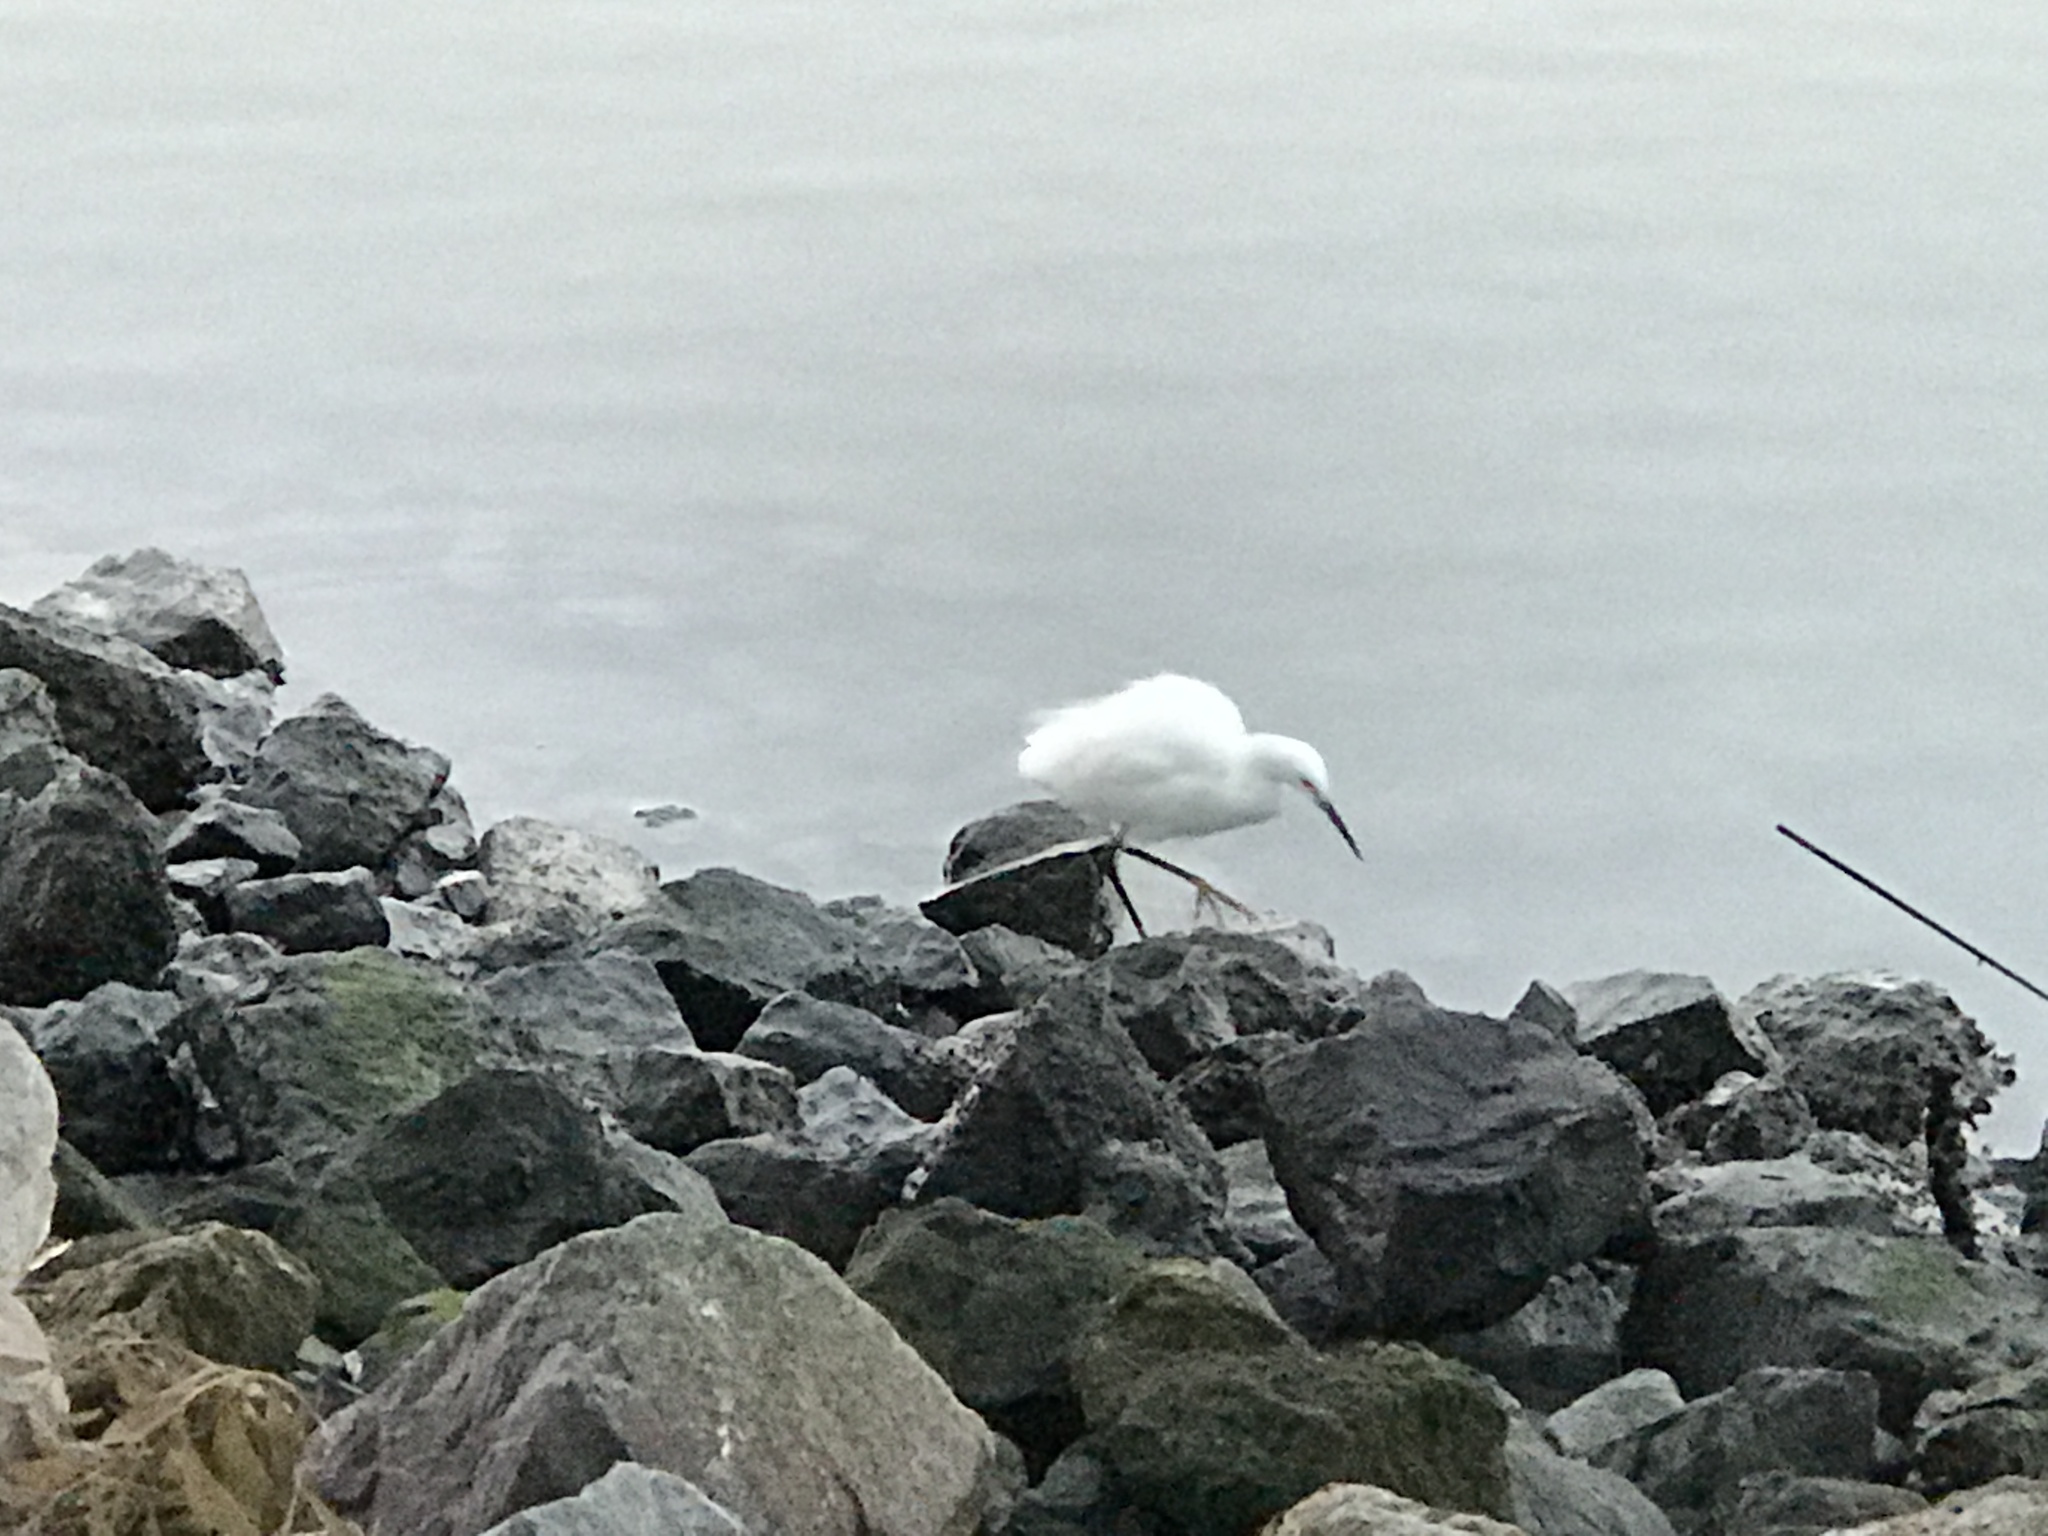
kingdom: Animalia
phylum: Chordata
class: Aves
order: Pelecaniformes
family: Ardeidae
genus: Egretta
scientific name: Egretta thula
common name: Snowy egret
